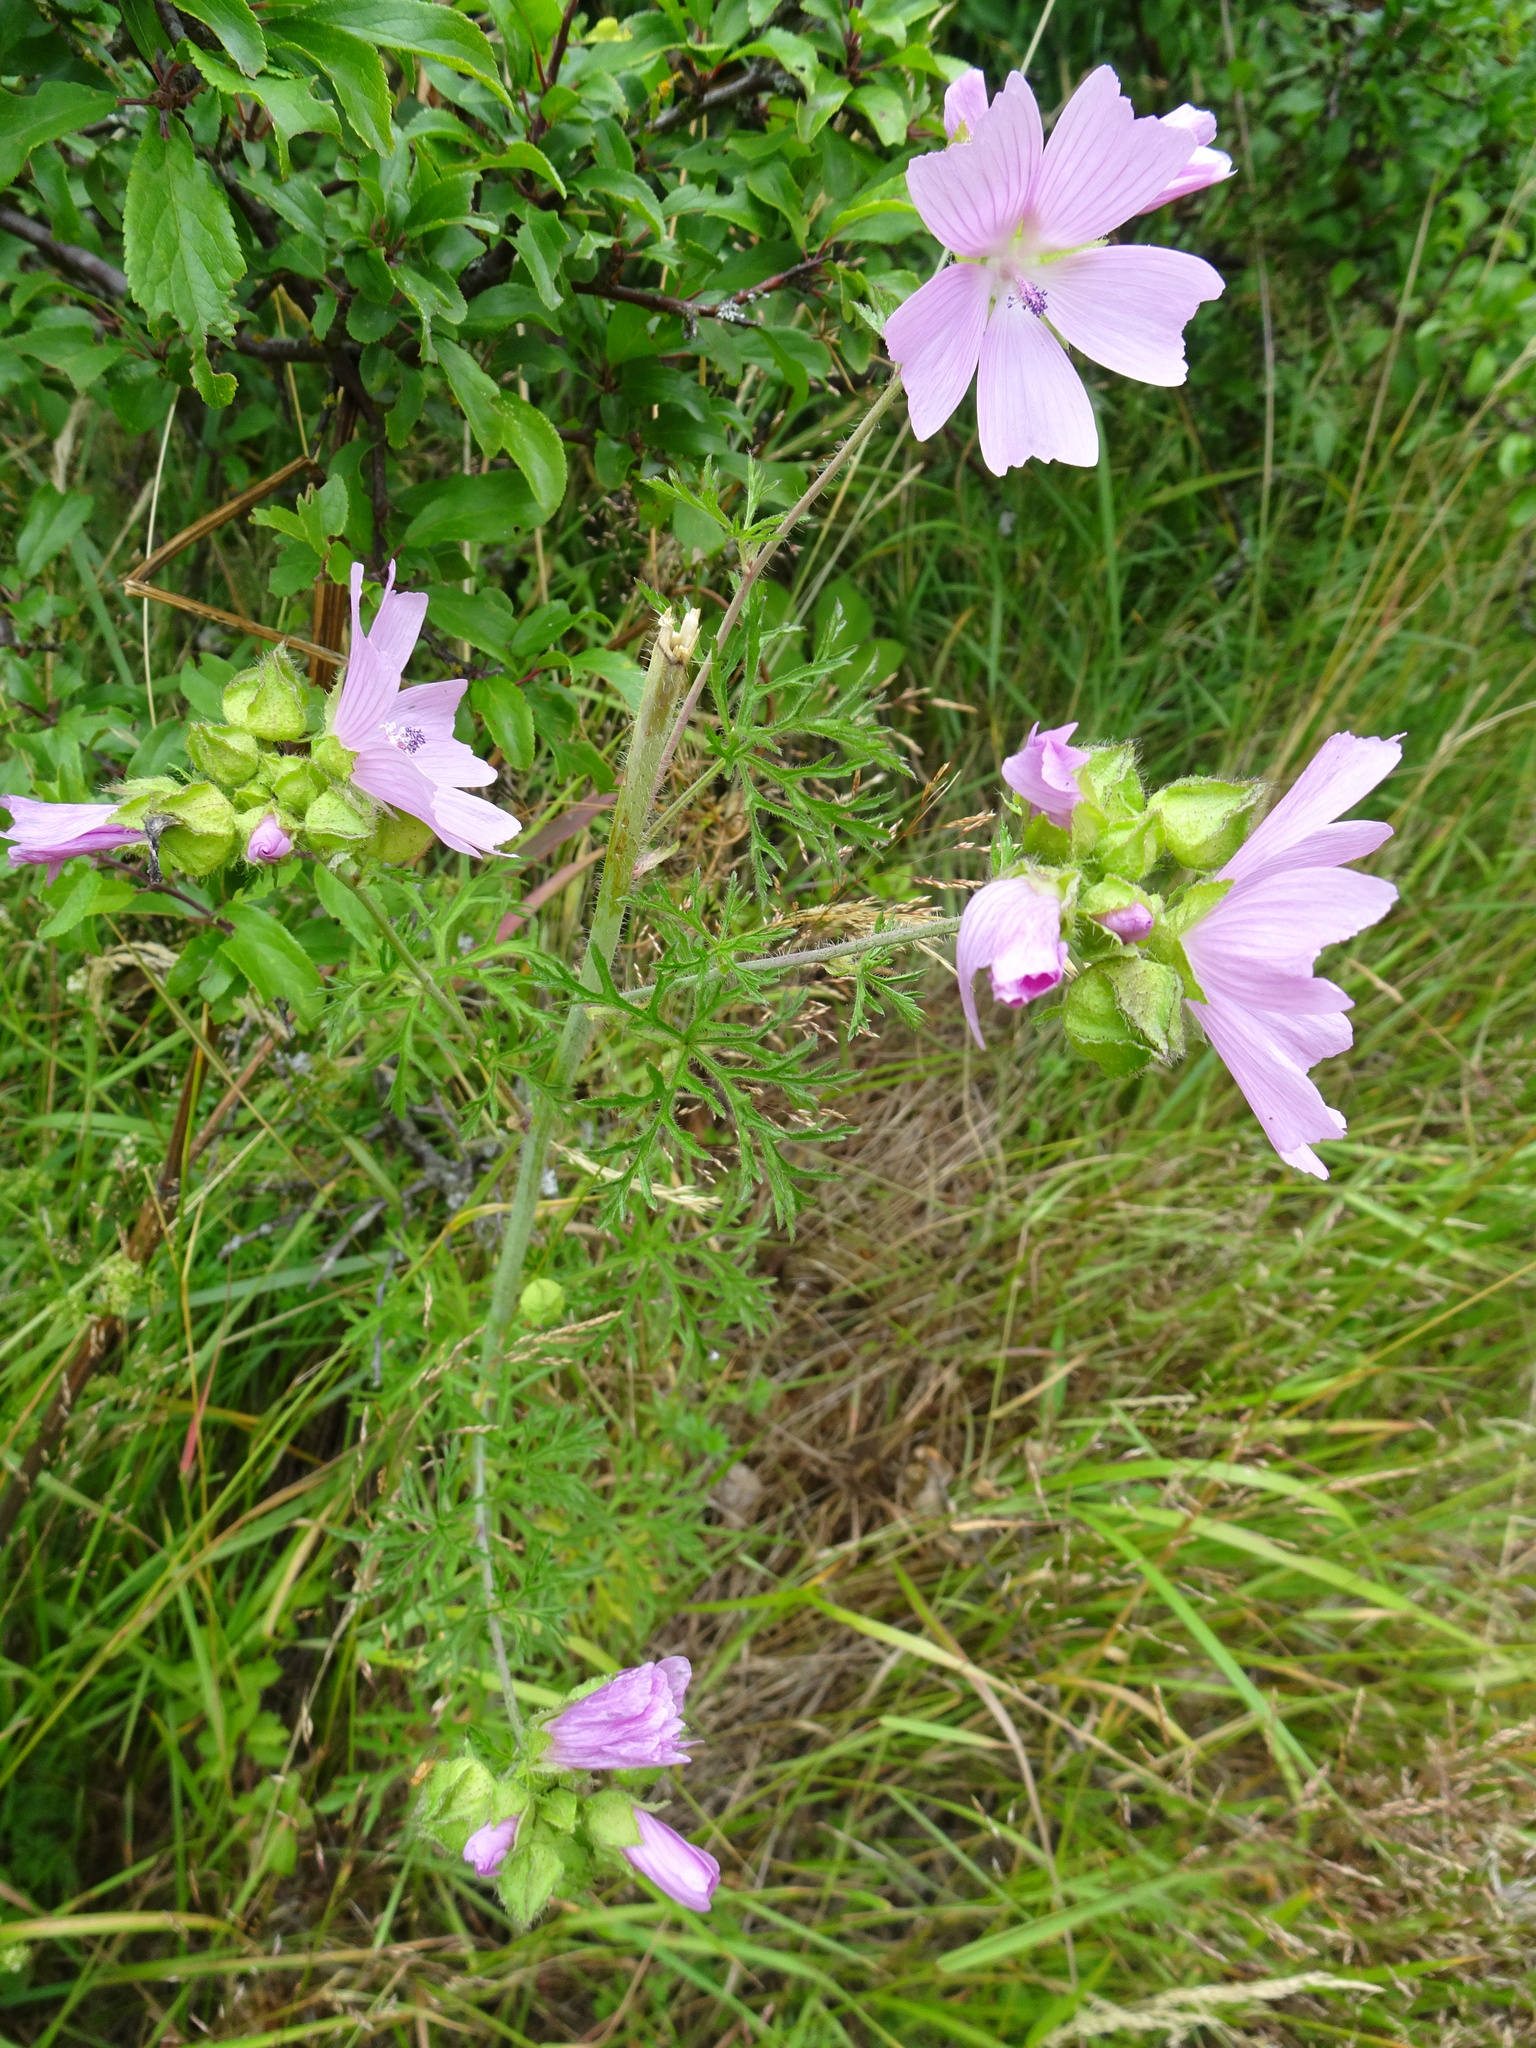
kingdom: Plantae
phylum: Tracheophyta
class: Magnoliopsida
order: Malvales
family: Malvaceae
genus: Malva
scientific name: Malva moschata
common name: Musk mallow
